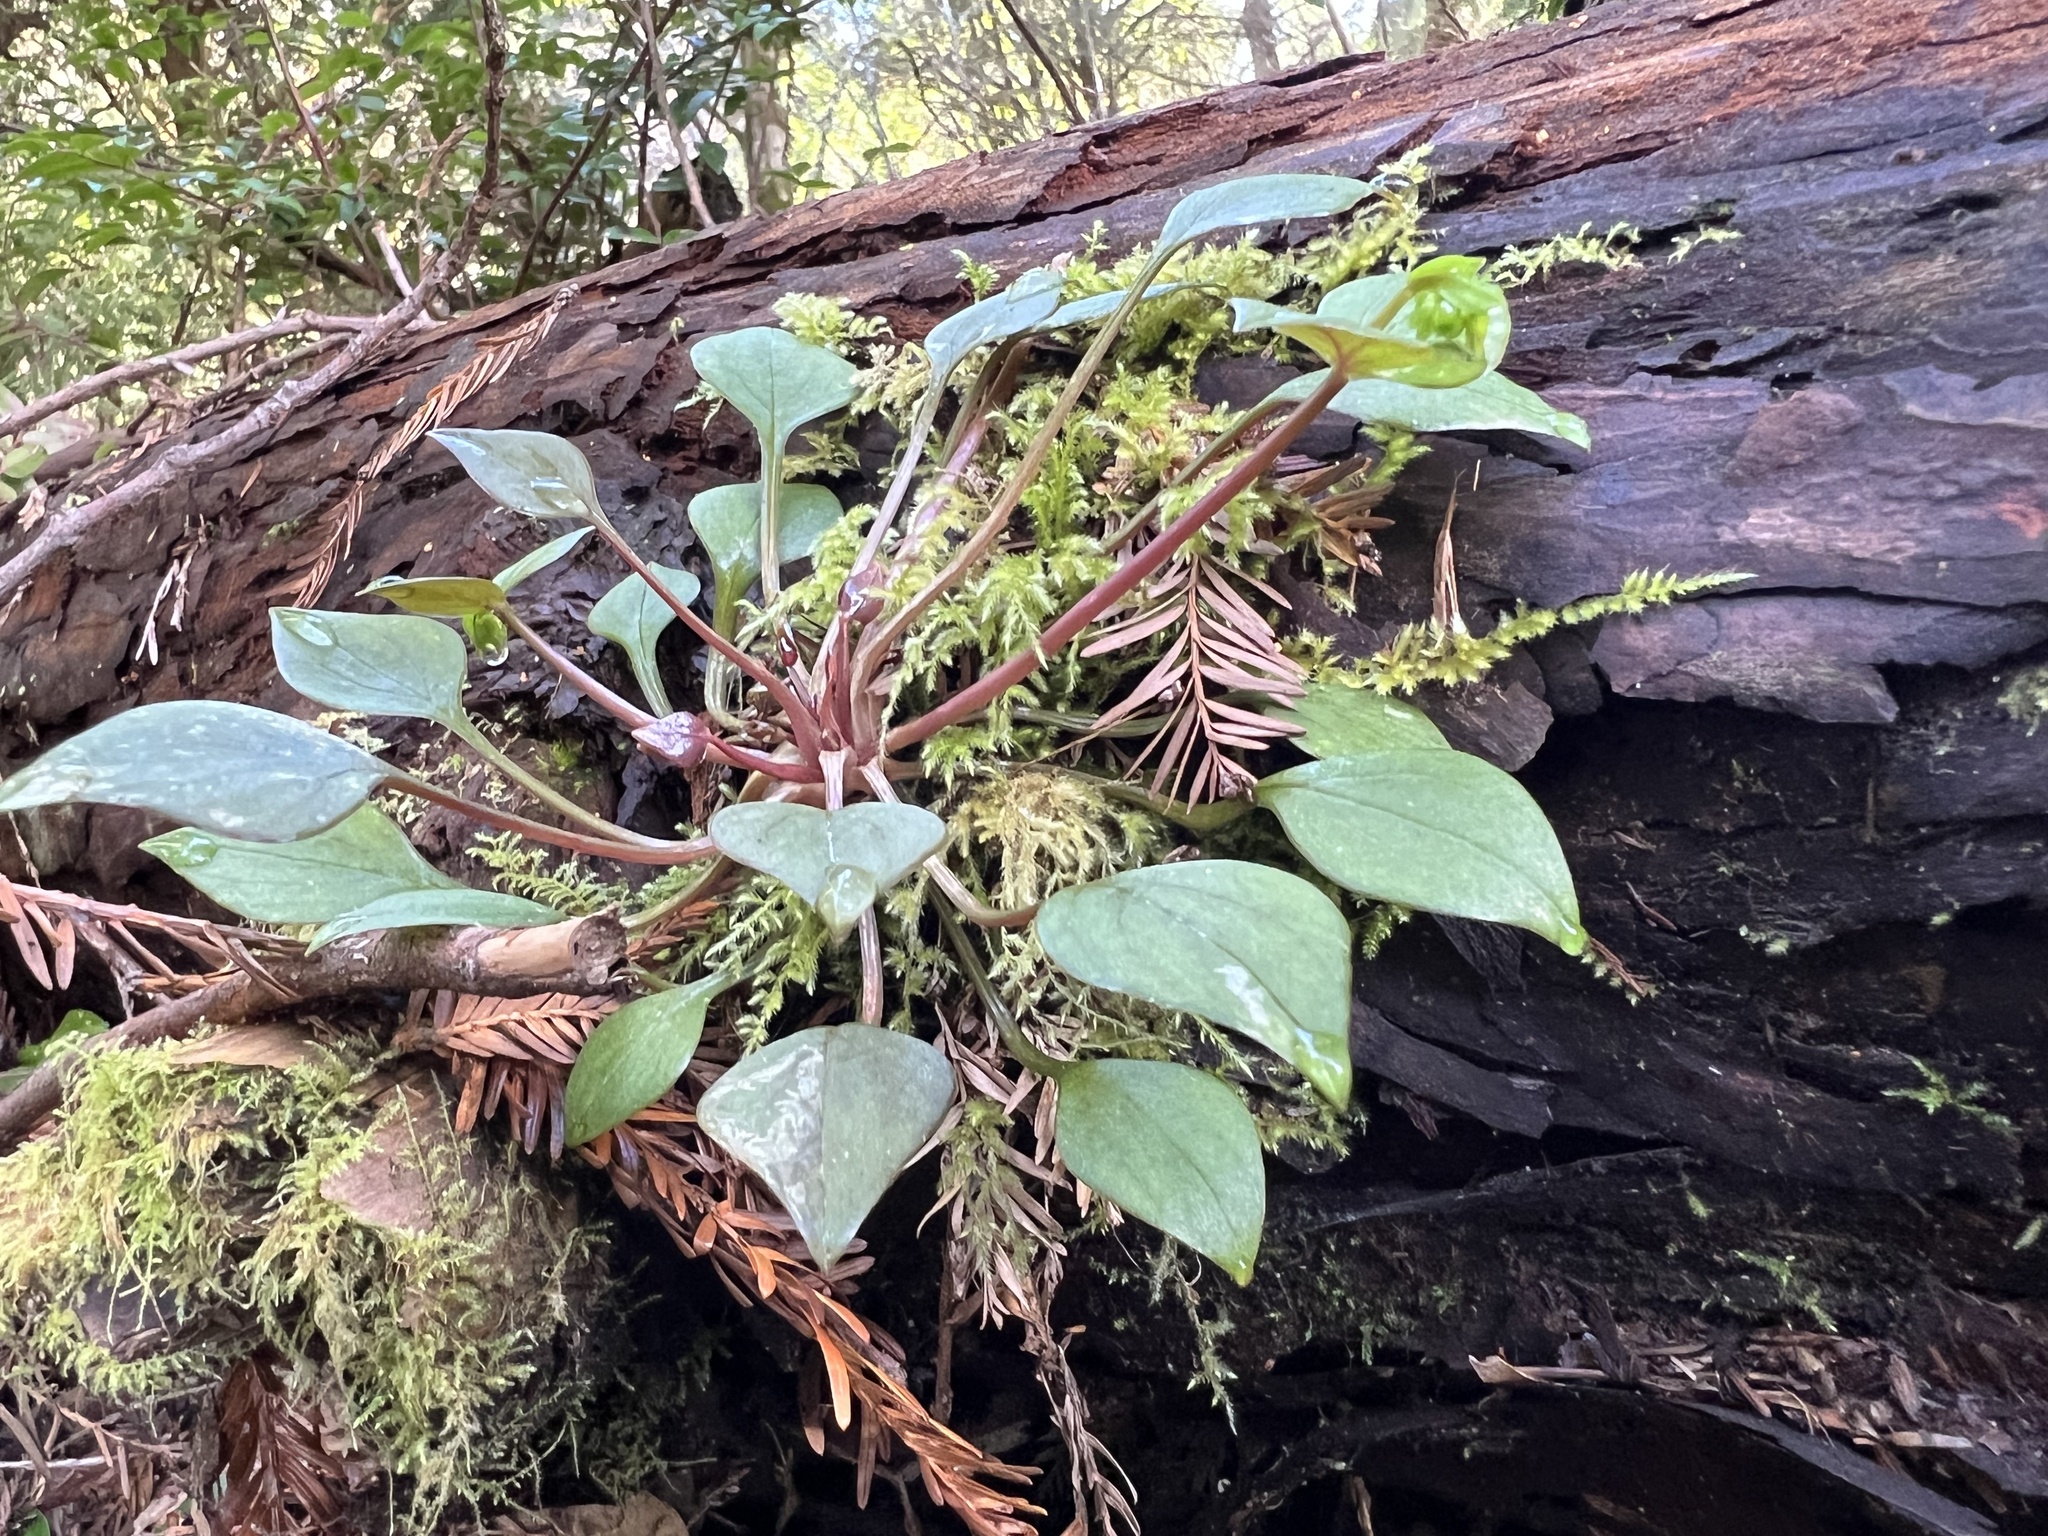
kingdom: Plantae
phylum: Tracheophyta
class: Magnoliopsida
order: Caryophyllales
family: Montiaceae
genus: Claytonia
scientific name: Claytonia sibirica
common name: Pink purslane
